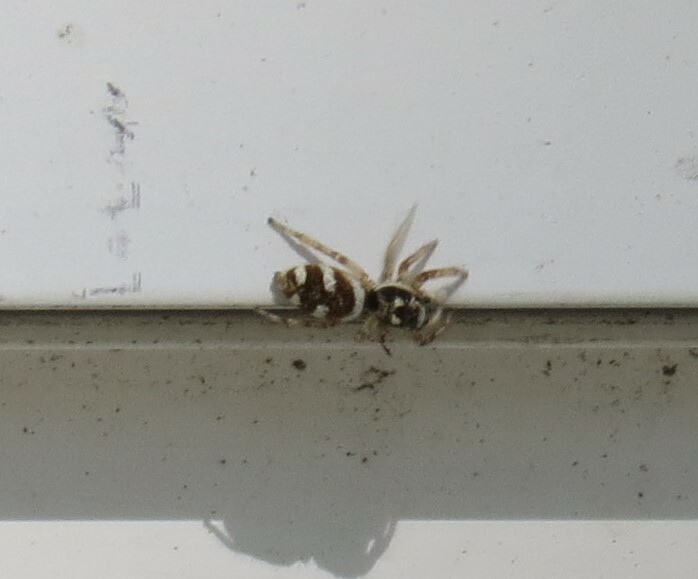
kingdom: Animalia
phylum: Arthropoda
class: Arachnida
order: Araneae
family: Salticidae
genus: Salticus
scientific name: Salticus scenicus
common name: Zebra jumper
